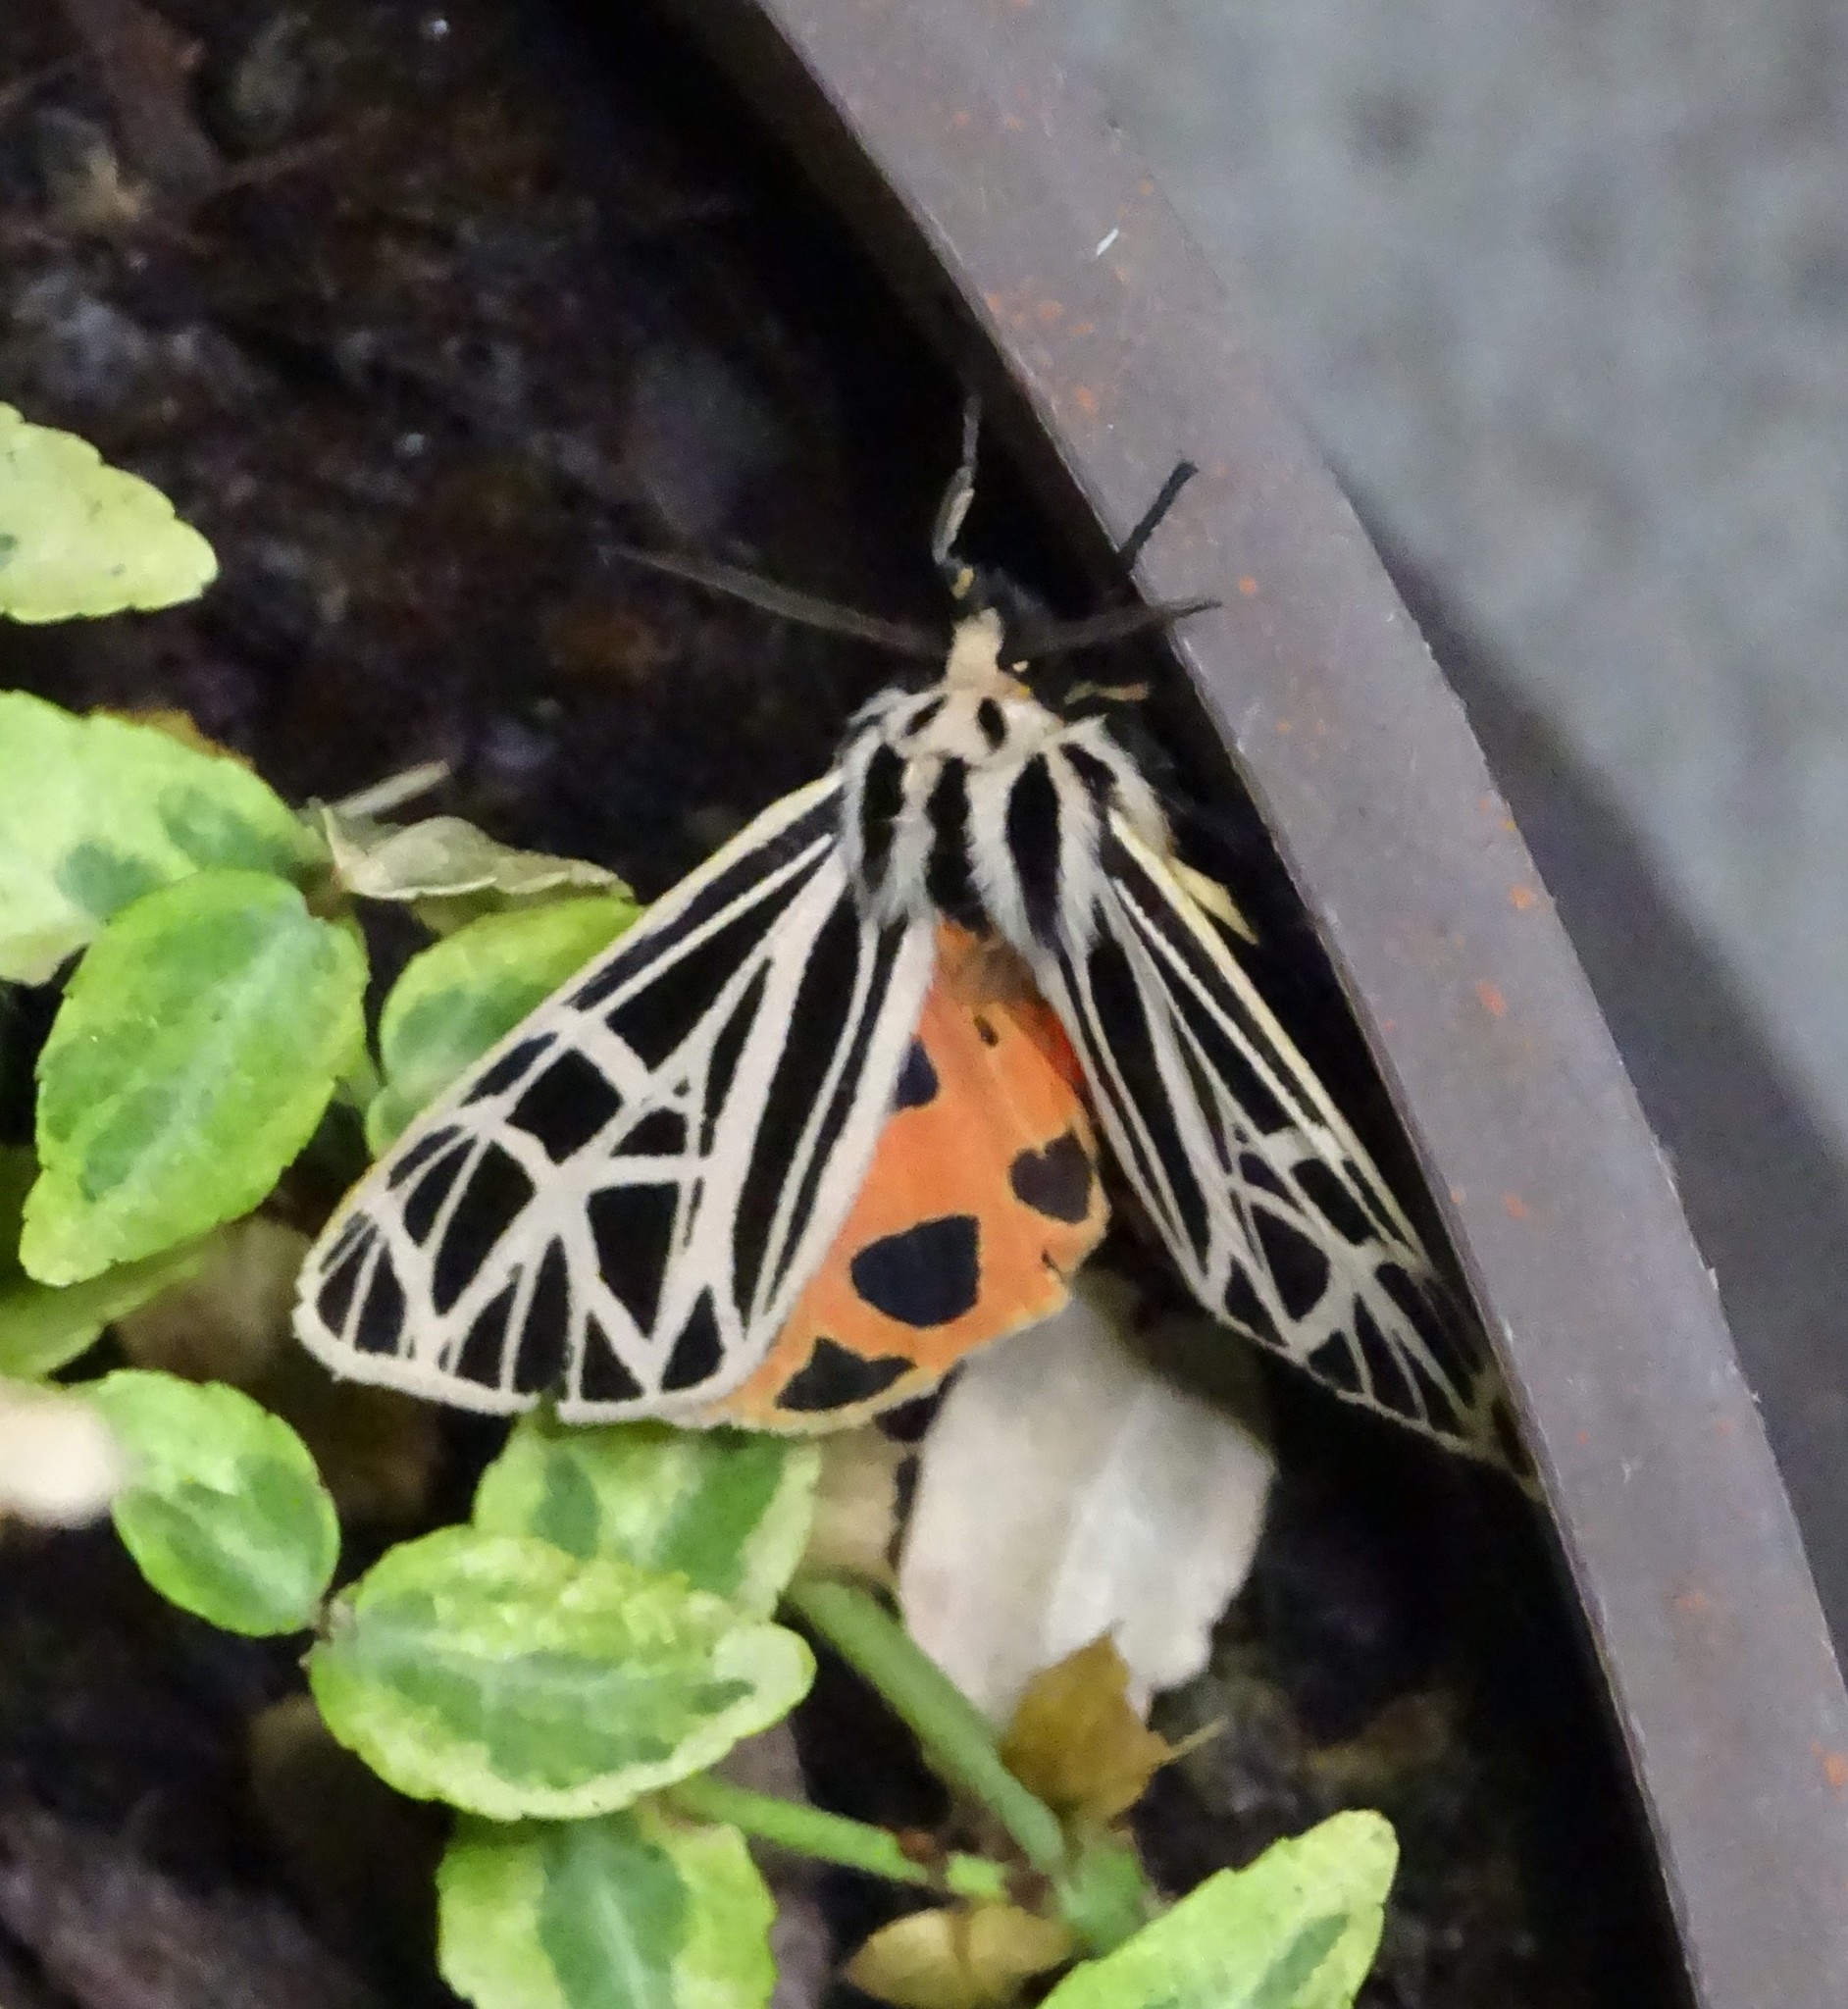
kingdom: Animalia
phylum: Arthropoda
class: Insecta
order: Lepidoptera
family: Erebidae
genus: Grammia
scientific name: Grammia virgo
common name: Virgin tiger moth
